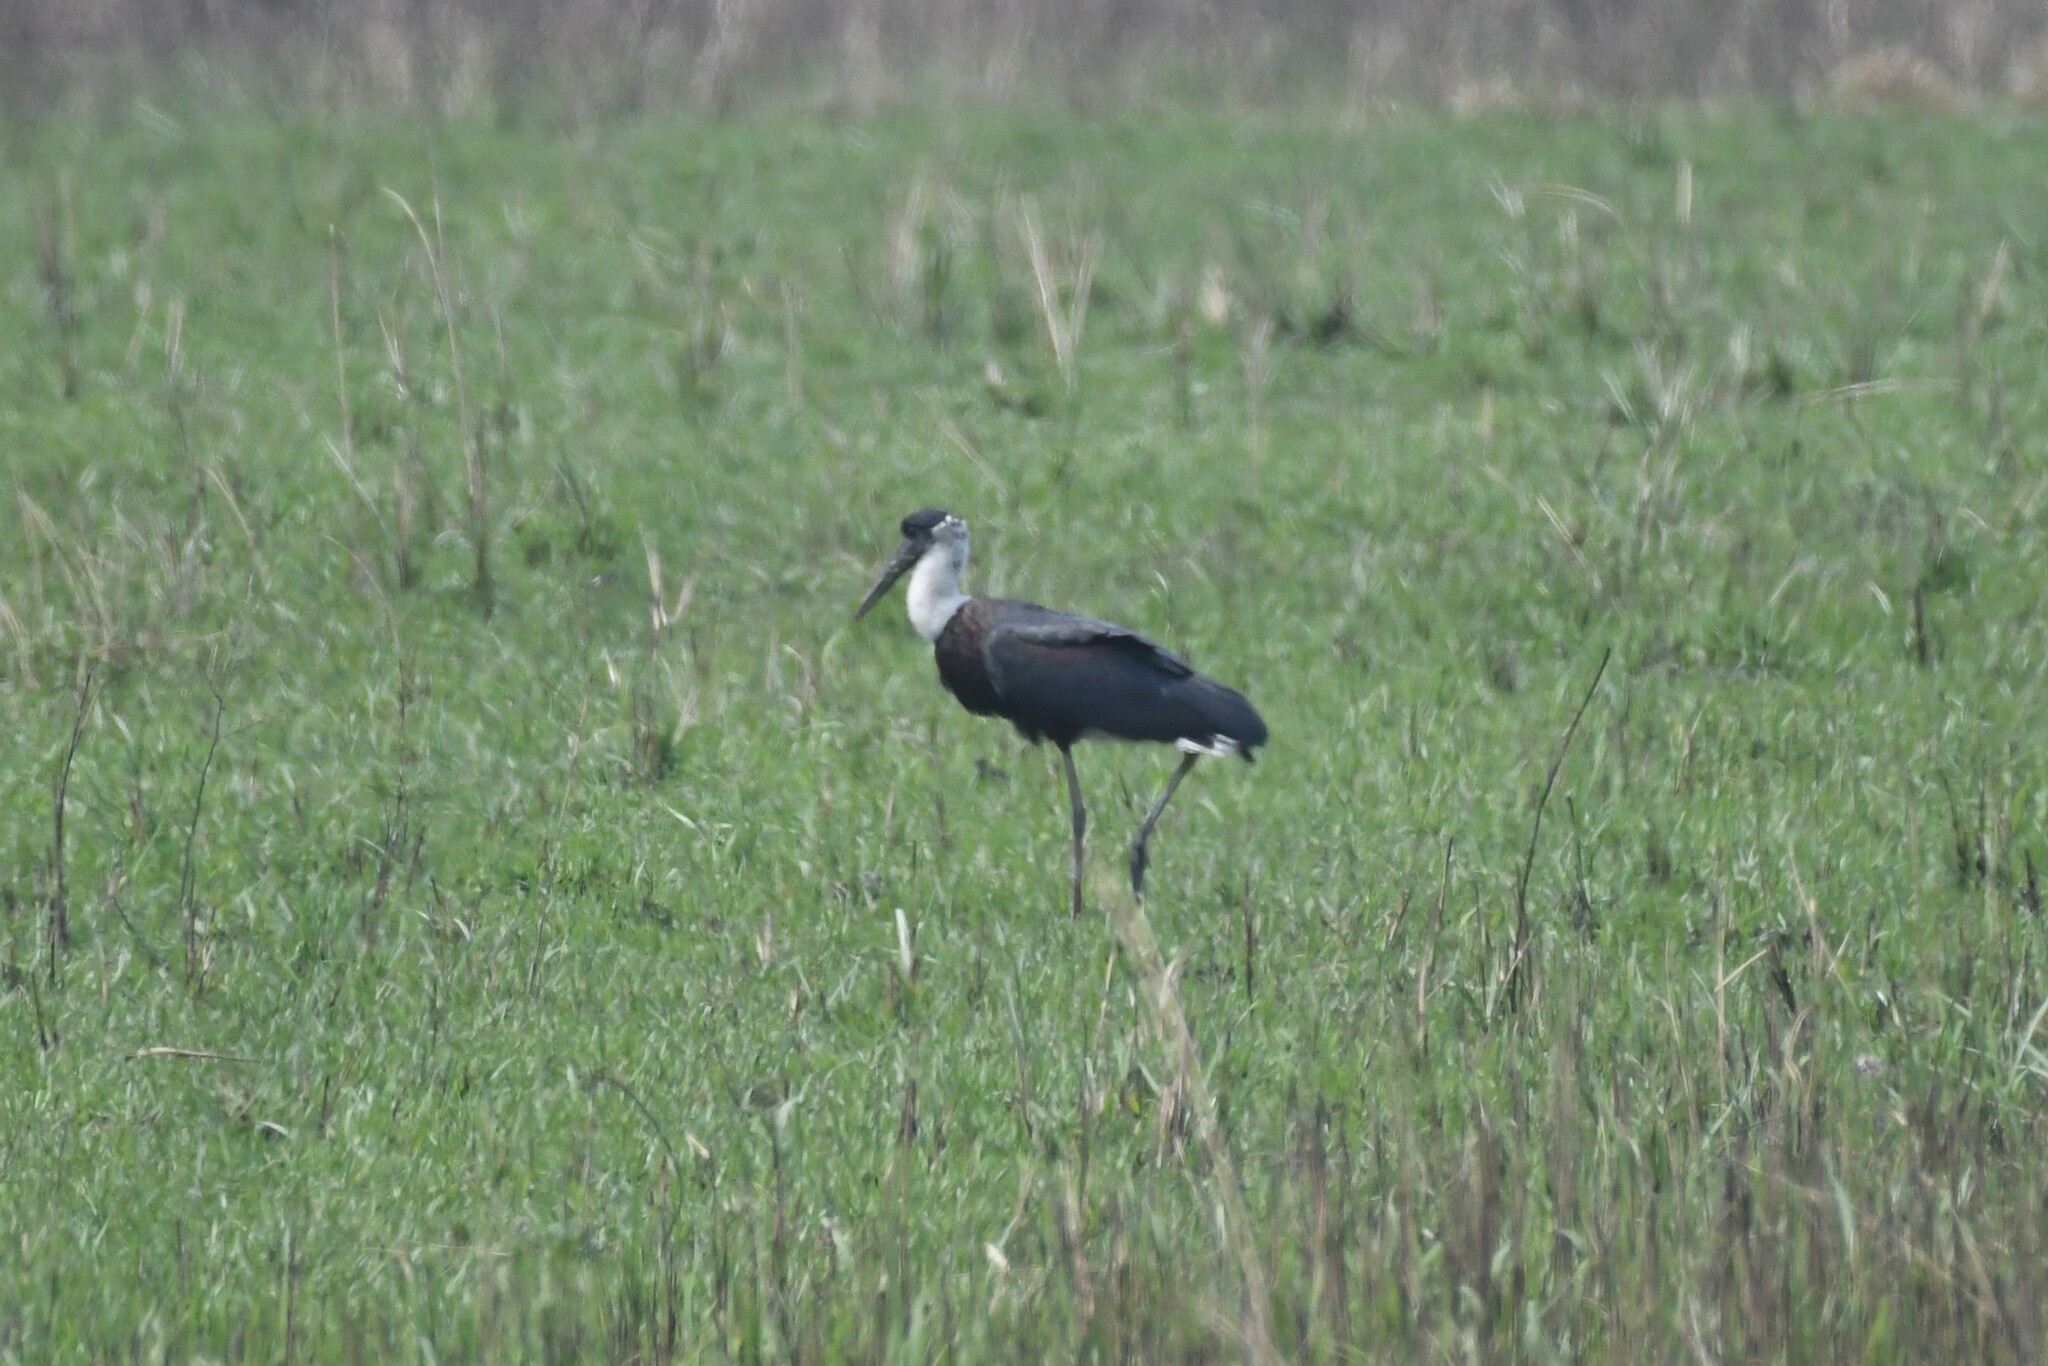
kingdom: Animalia
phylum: Chordata
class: Aves
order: Ciconiiformes
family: Ciconiidae
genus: Ciconia
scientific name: Ciconia episcopus
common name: Woolly-necked stork
